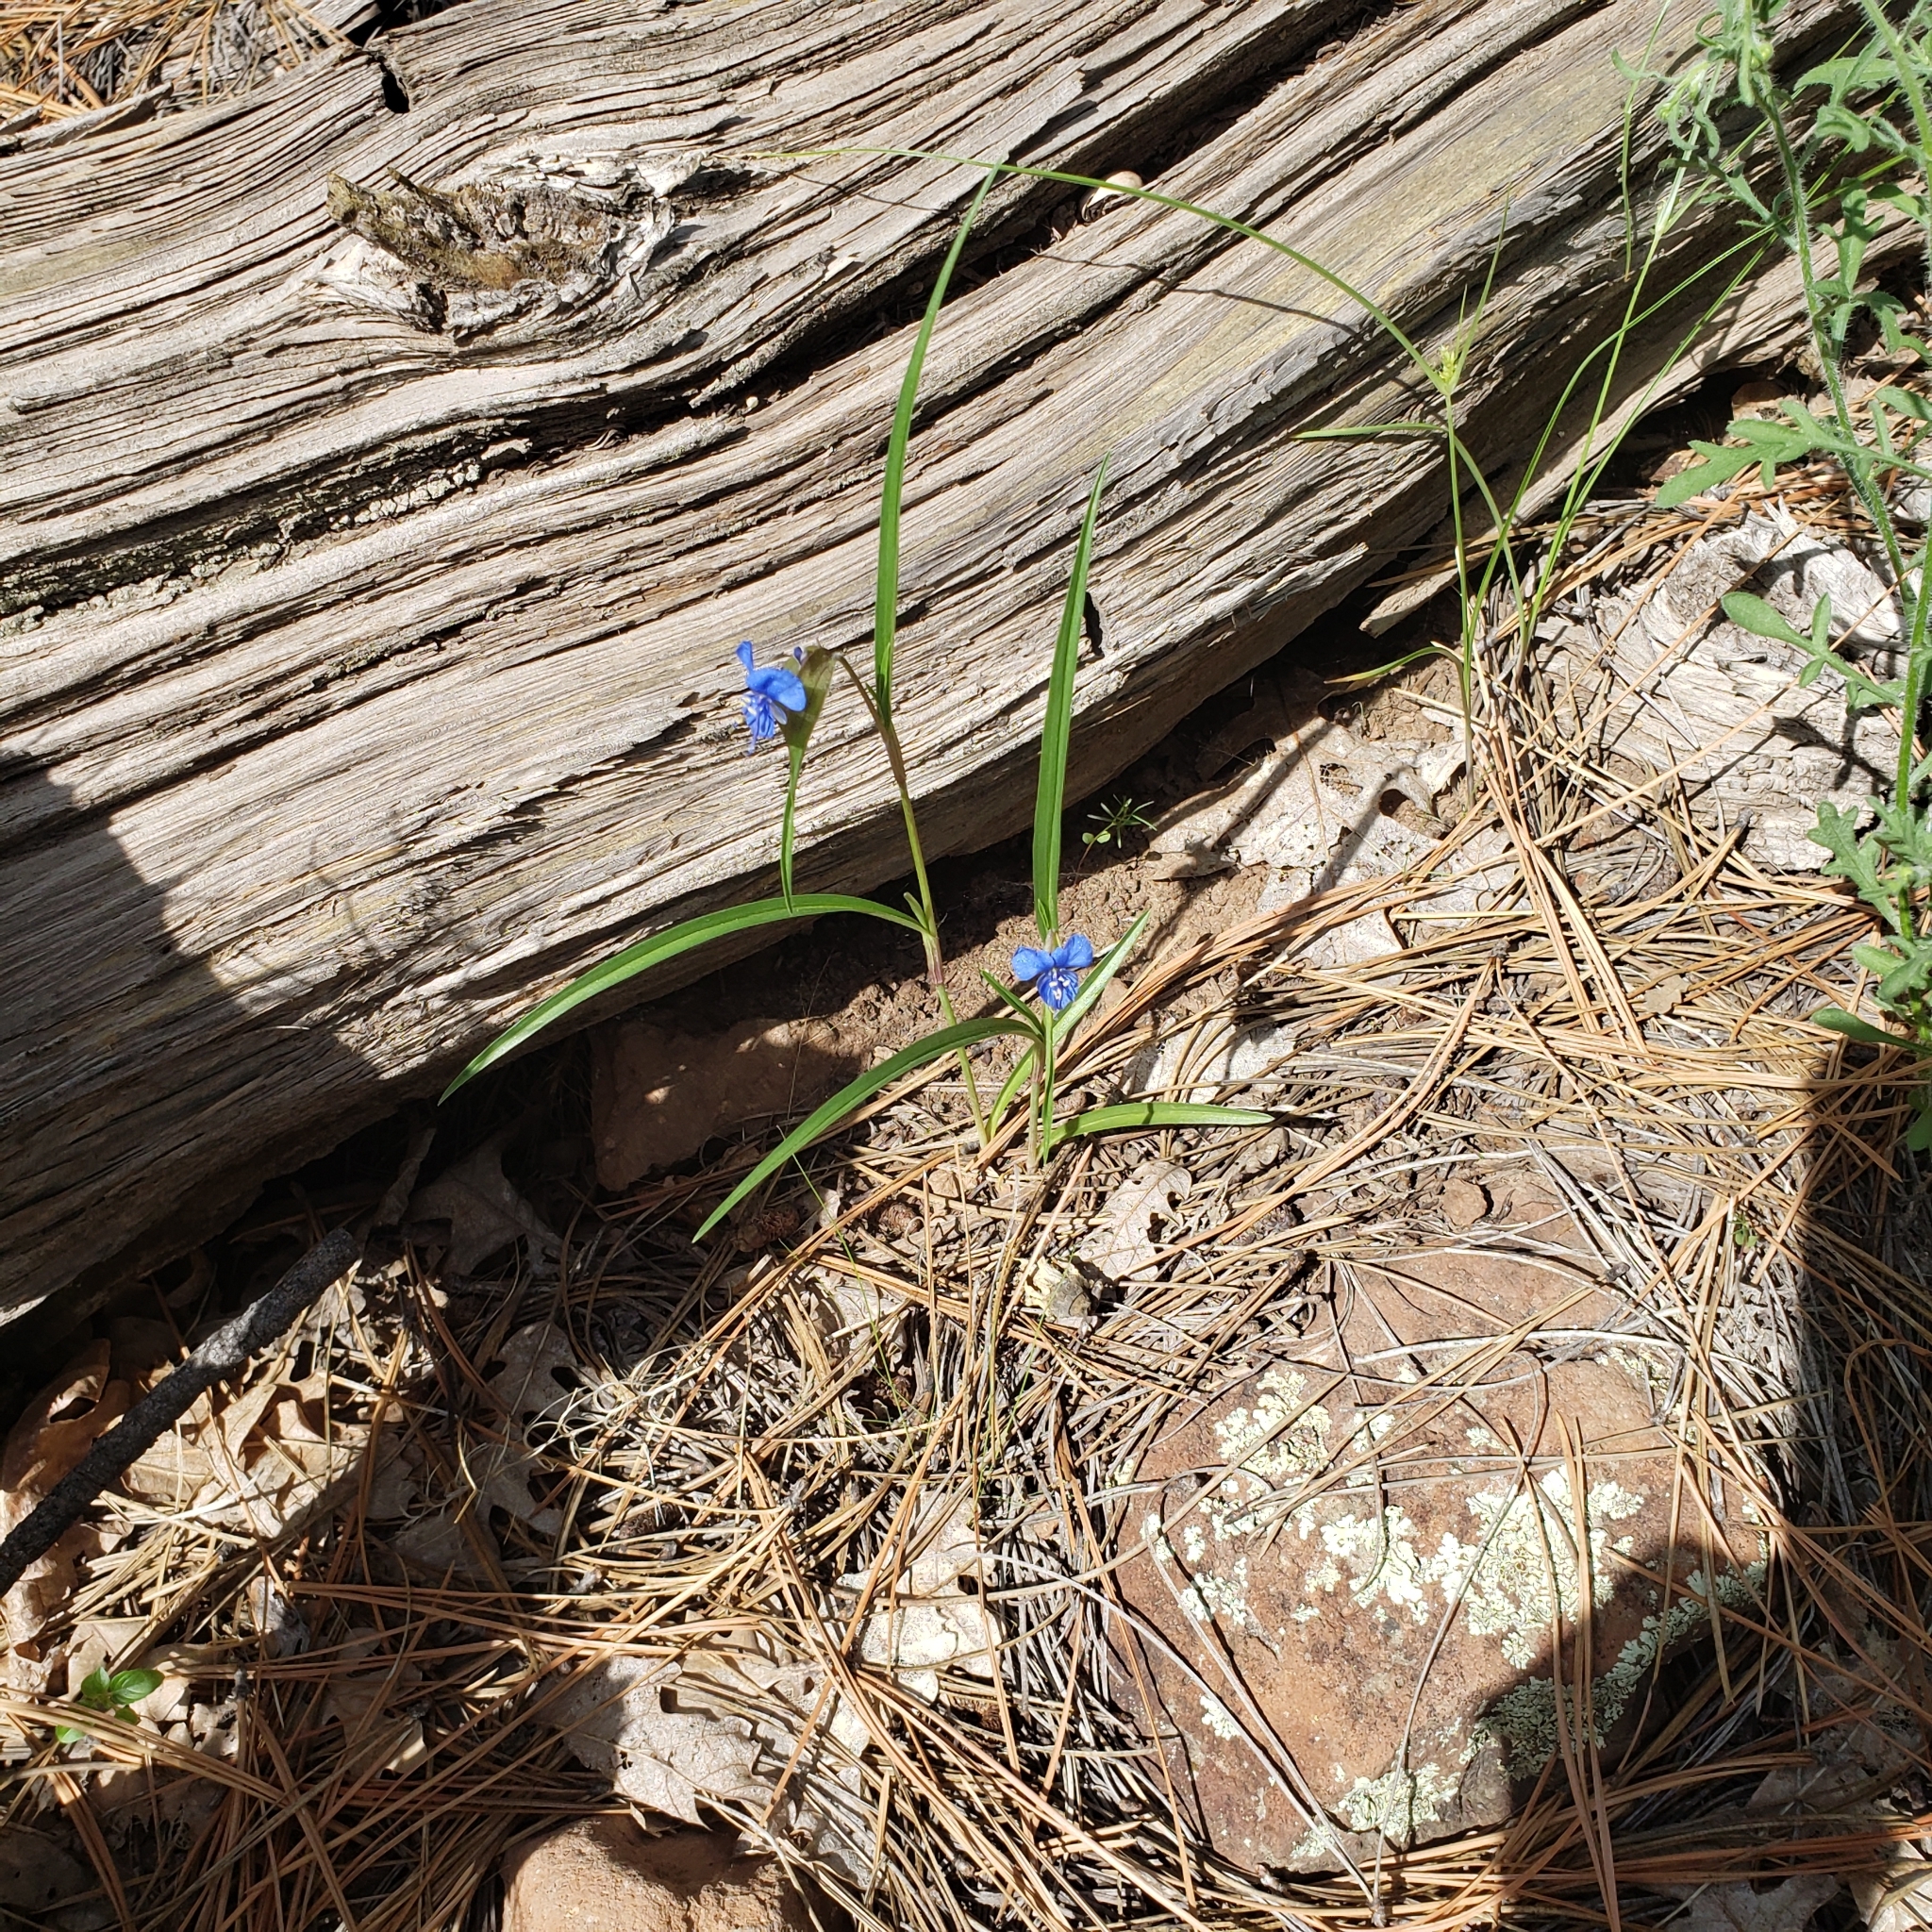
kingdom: Plantae
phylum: Tracheophyta
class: Liliopsida
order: Commelinales
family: Commelinaceae
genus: Commelina
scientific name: Commelina dianthifolia
